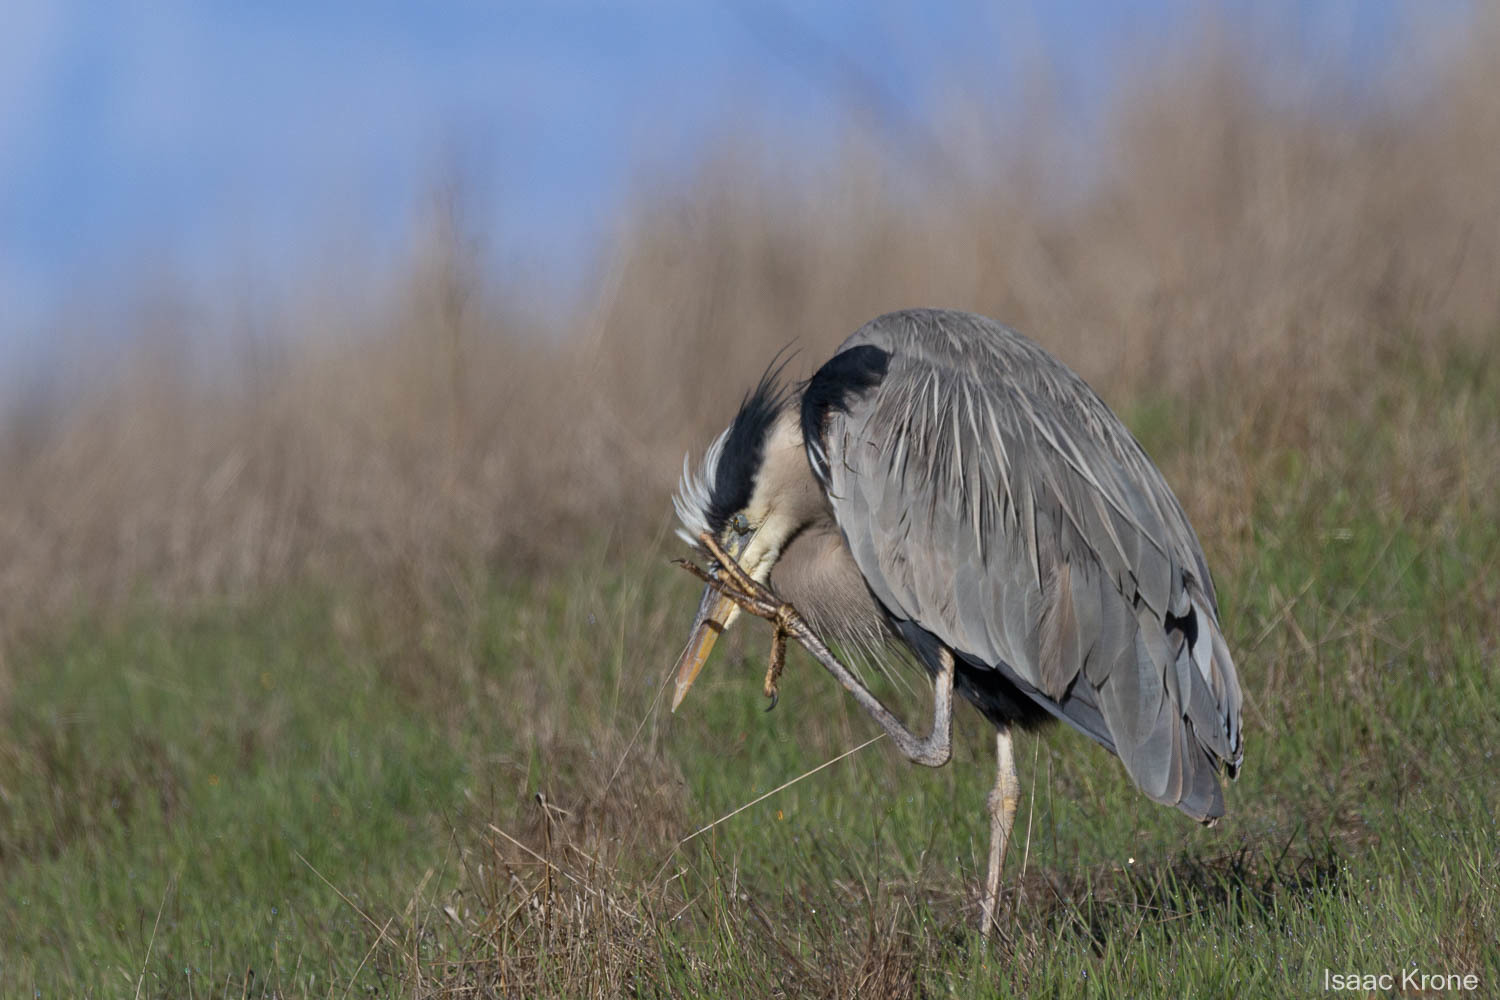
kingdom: Animalia
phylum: Chordata
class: Aves
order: Pelecaniformes
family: Ardeidae
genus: Ardea
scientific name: Ardea herodias
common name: Great blue heron
